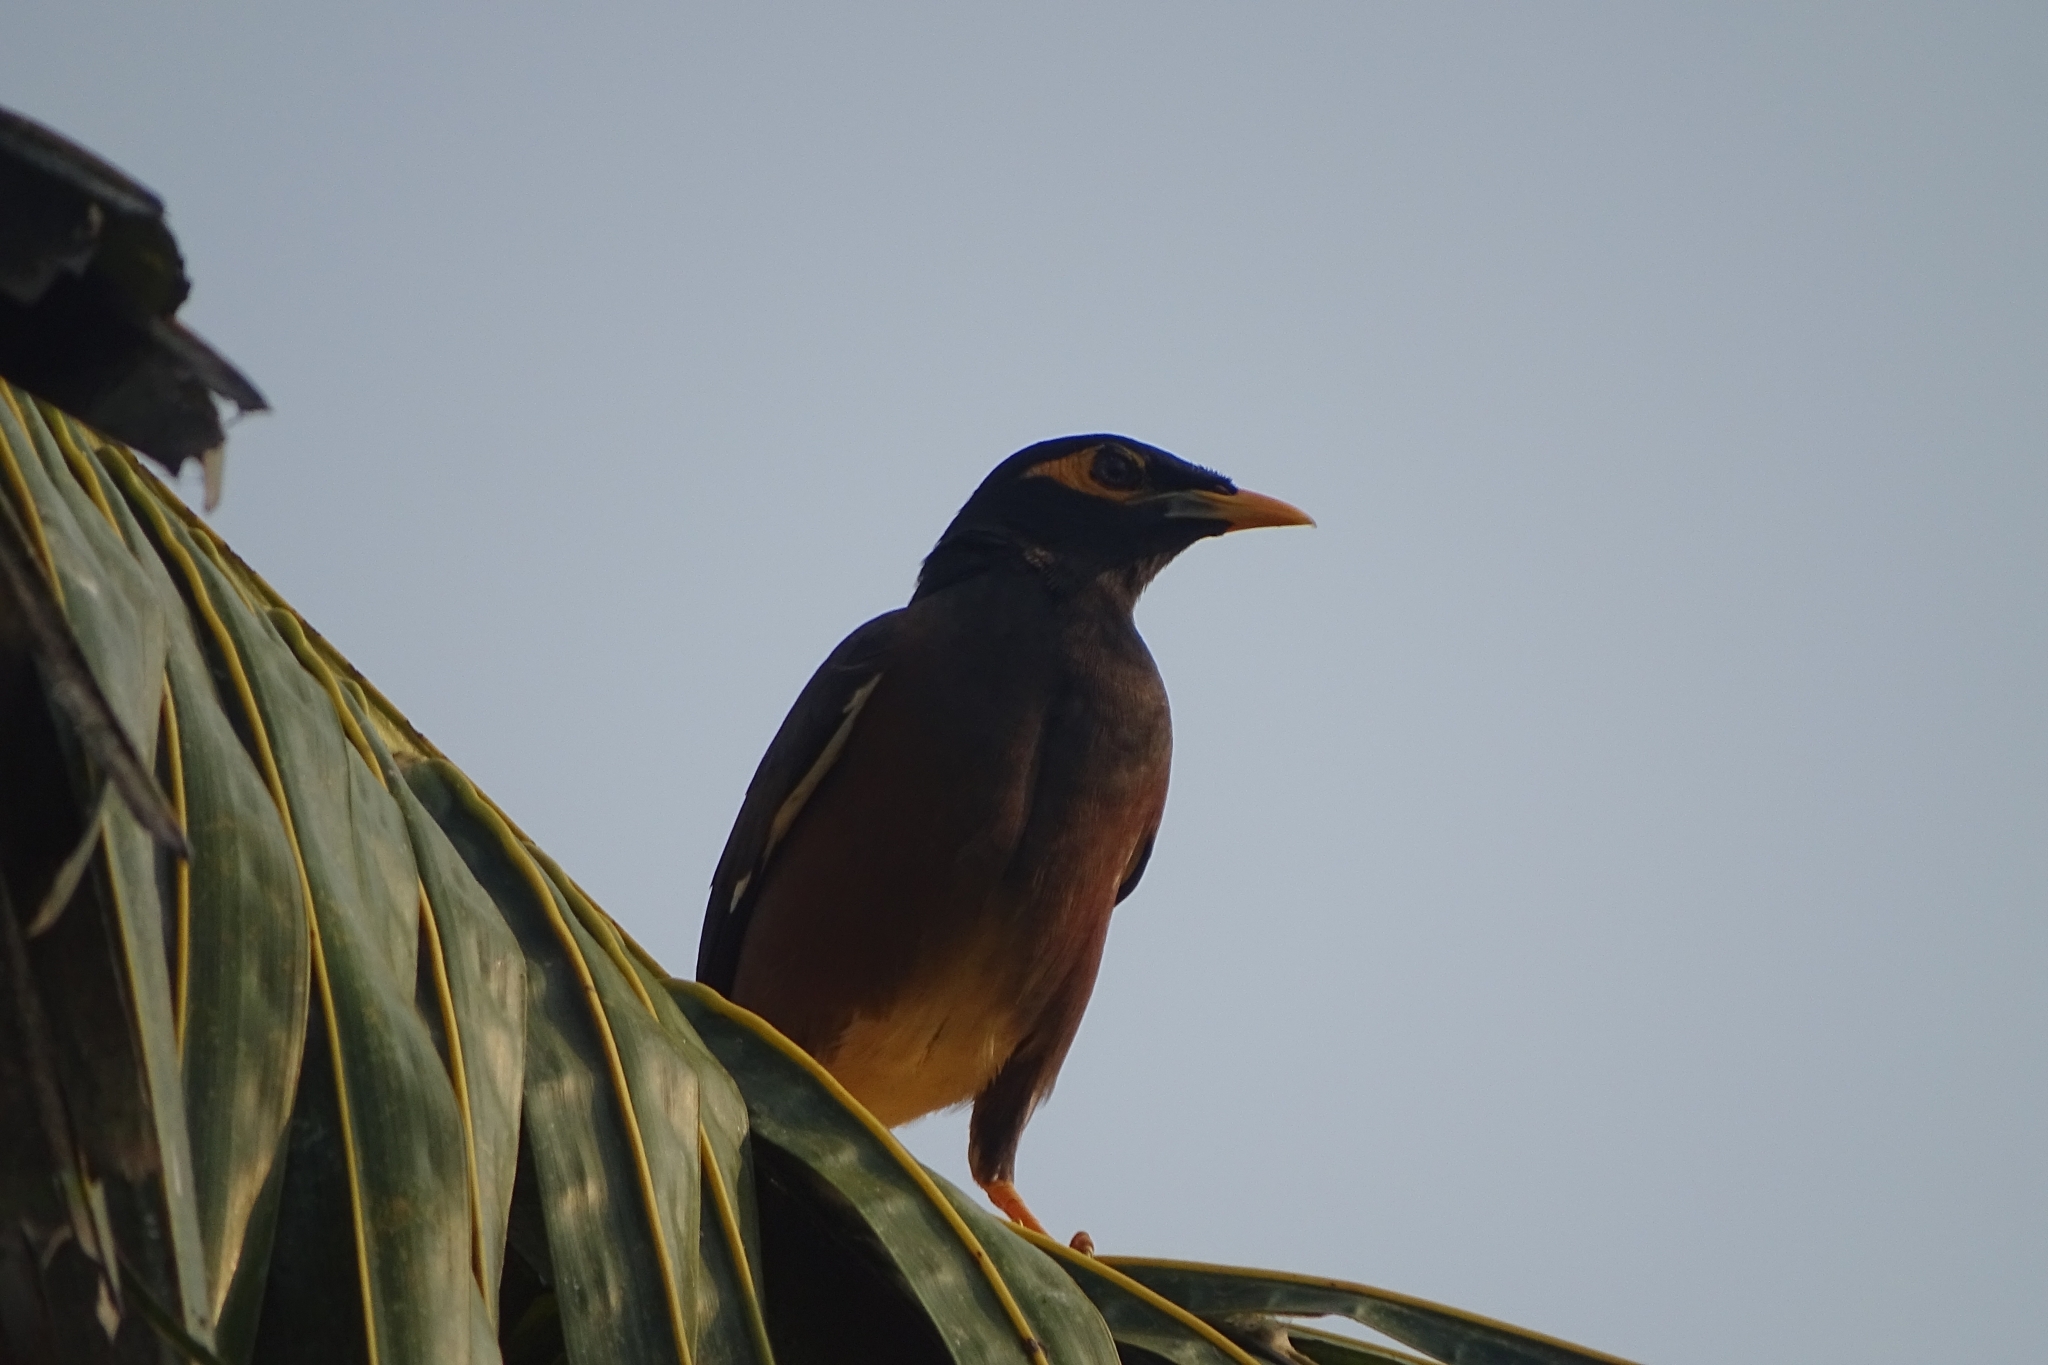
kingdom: Animalia
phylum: Chordata
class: Aves
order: Passeriformes
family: Sturnidae
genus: Acridotheres
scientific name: Acridotheres tristis
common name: Common myna
